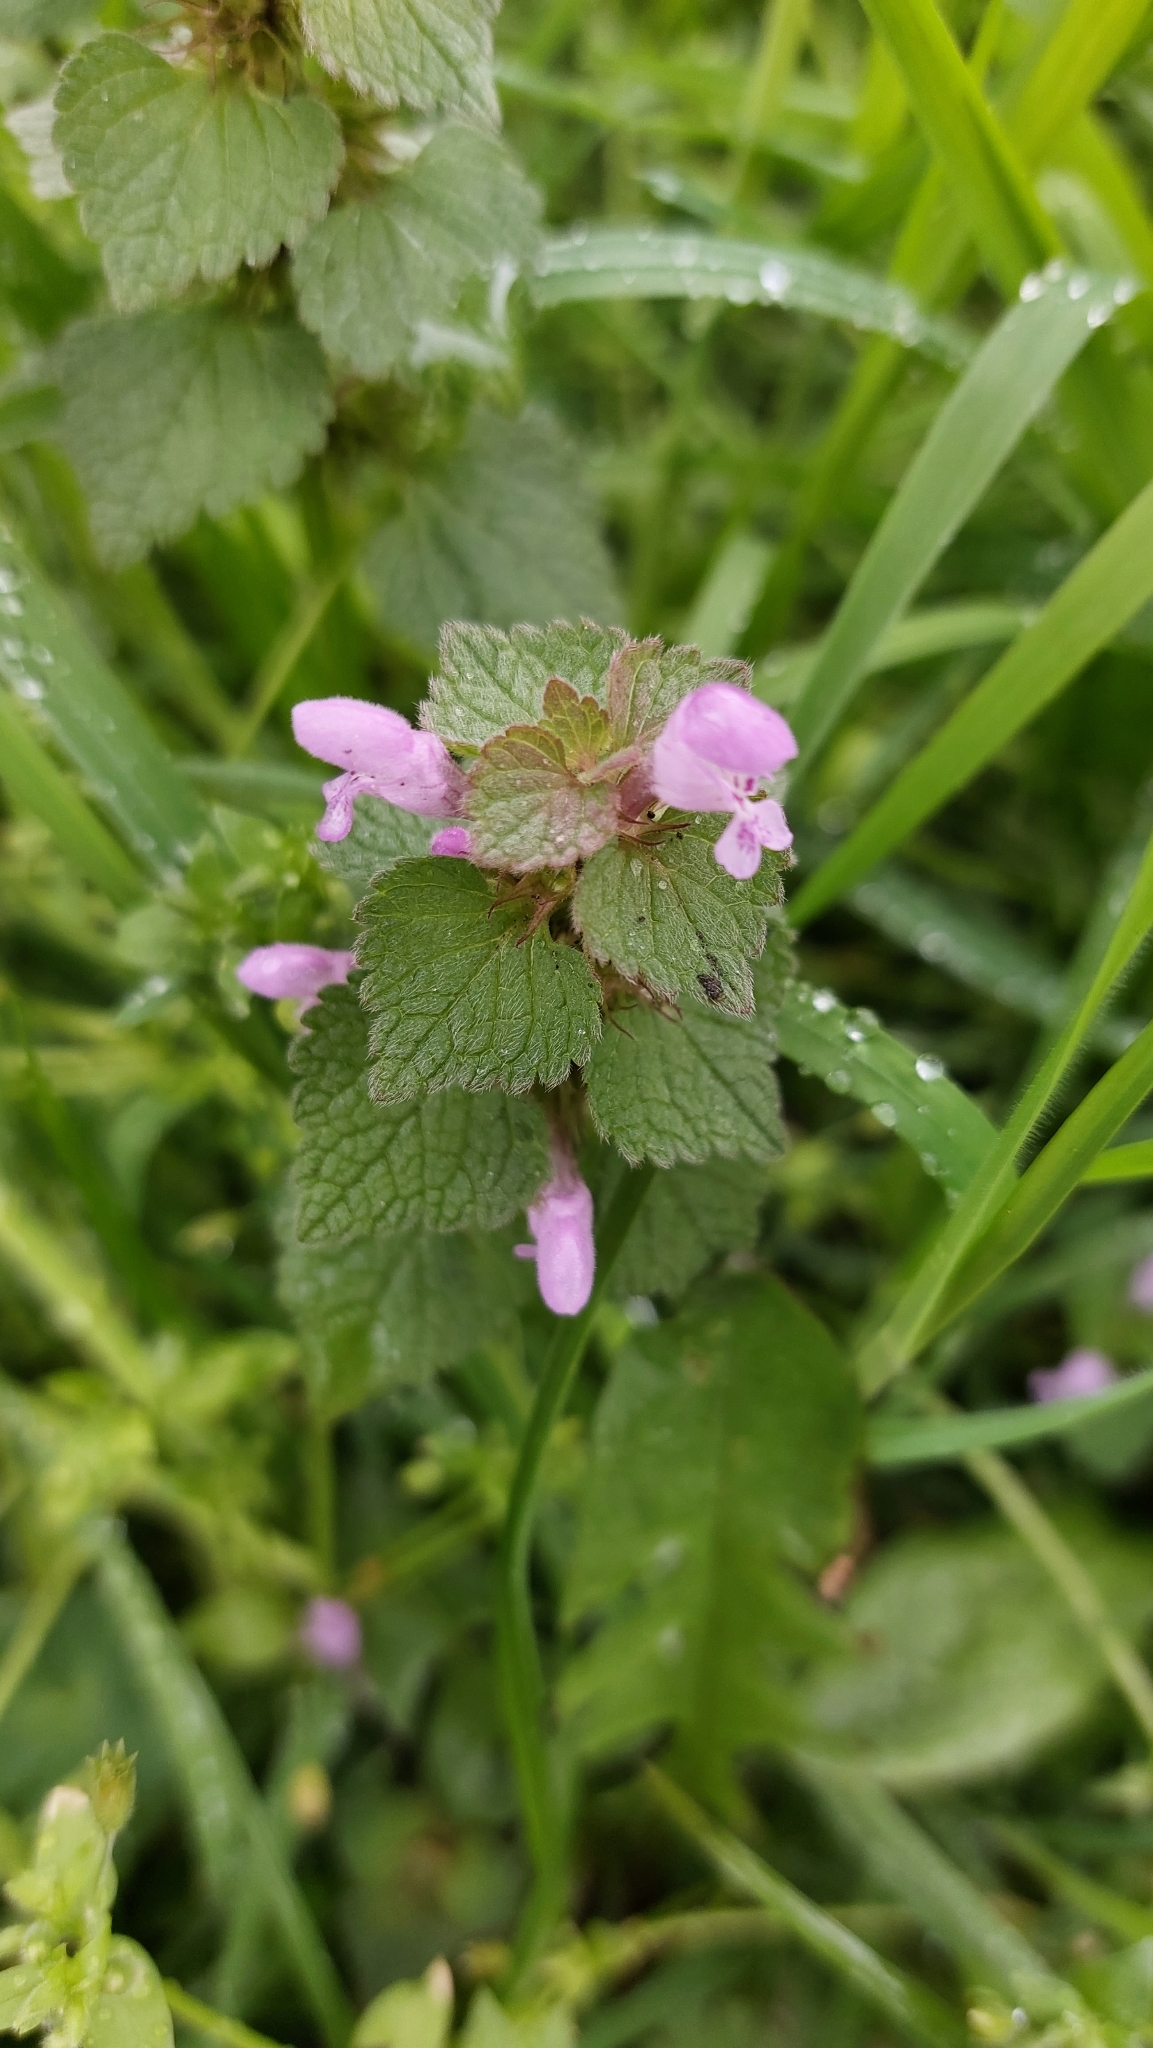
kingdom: Plantae
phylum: Tracheophyta
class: Magnoliopsida
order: Lamiales
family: Lamiaceae
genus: Lamium
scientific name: Lamium purpureum
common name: Red dead-nettle
